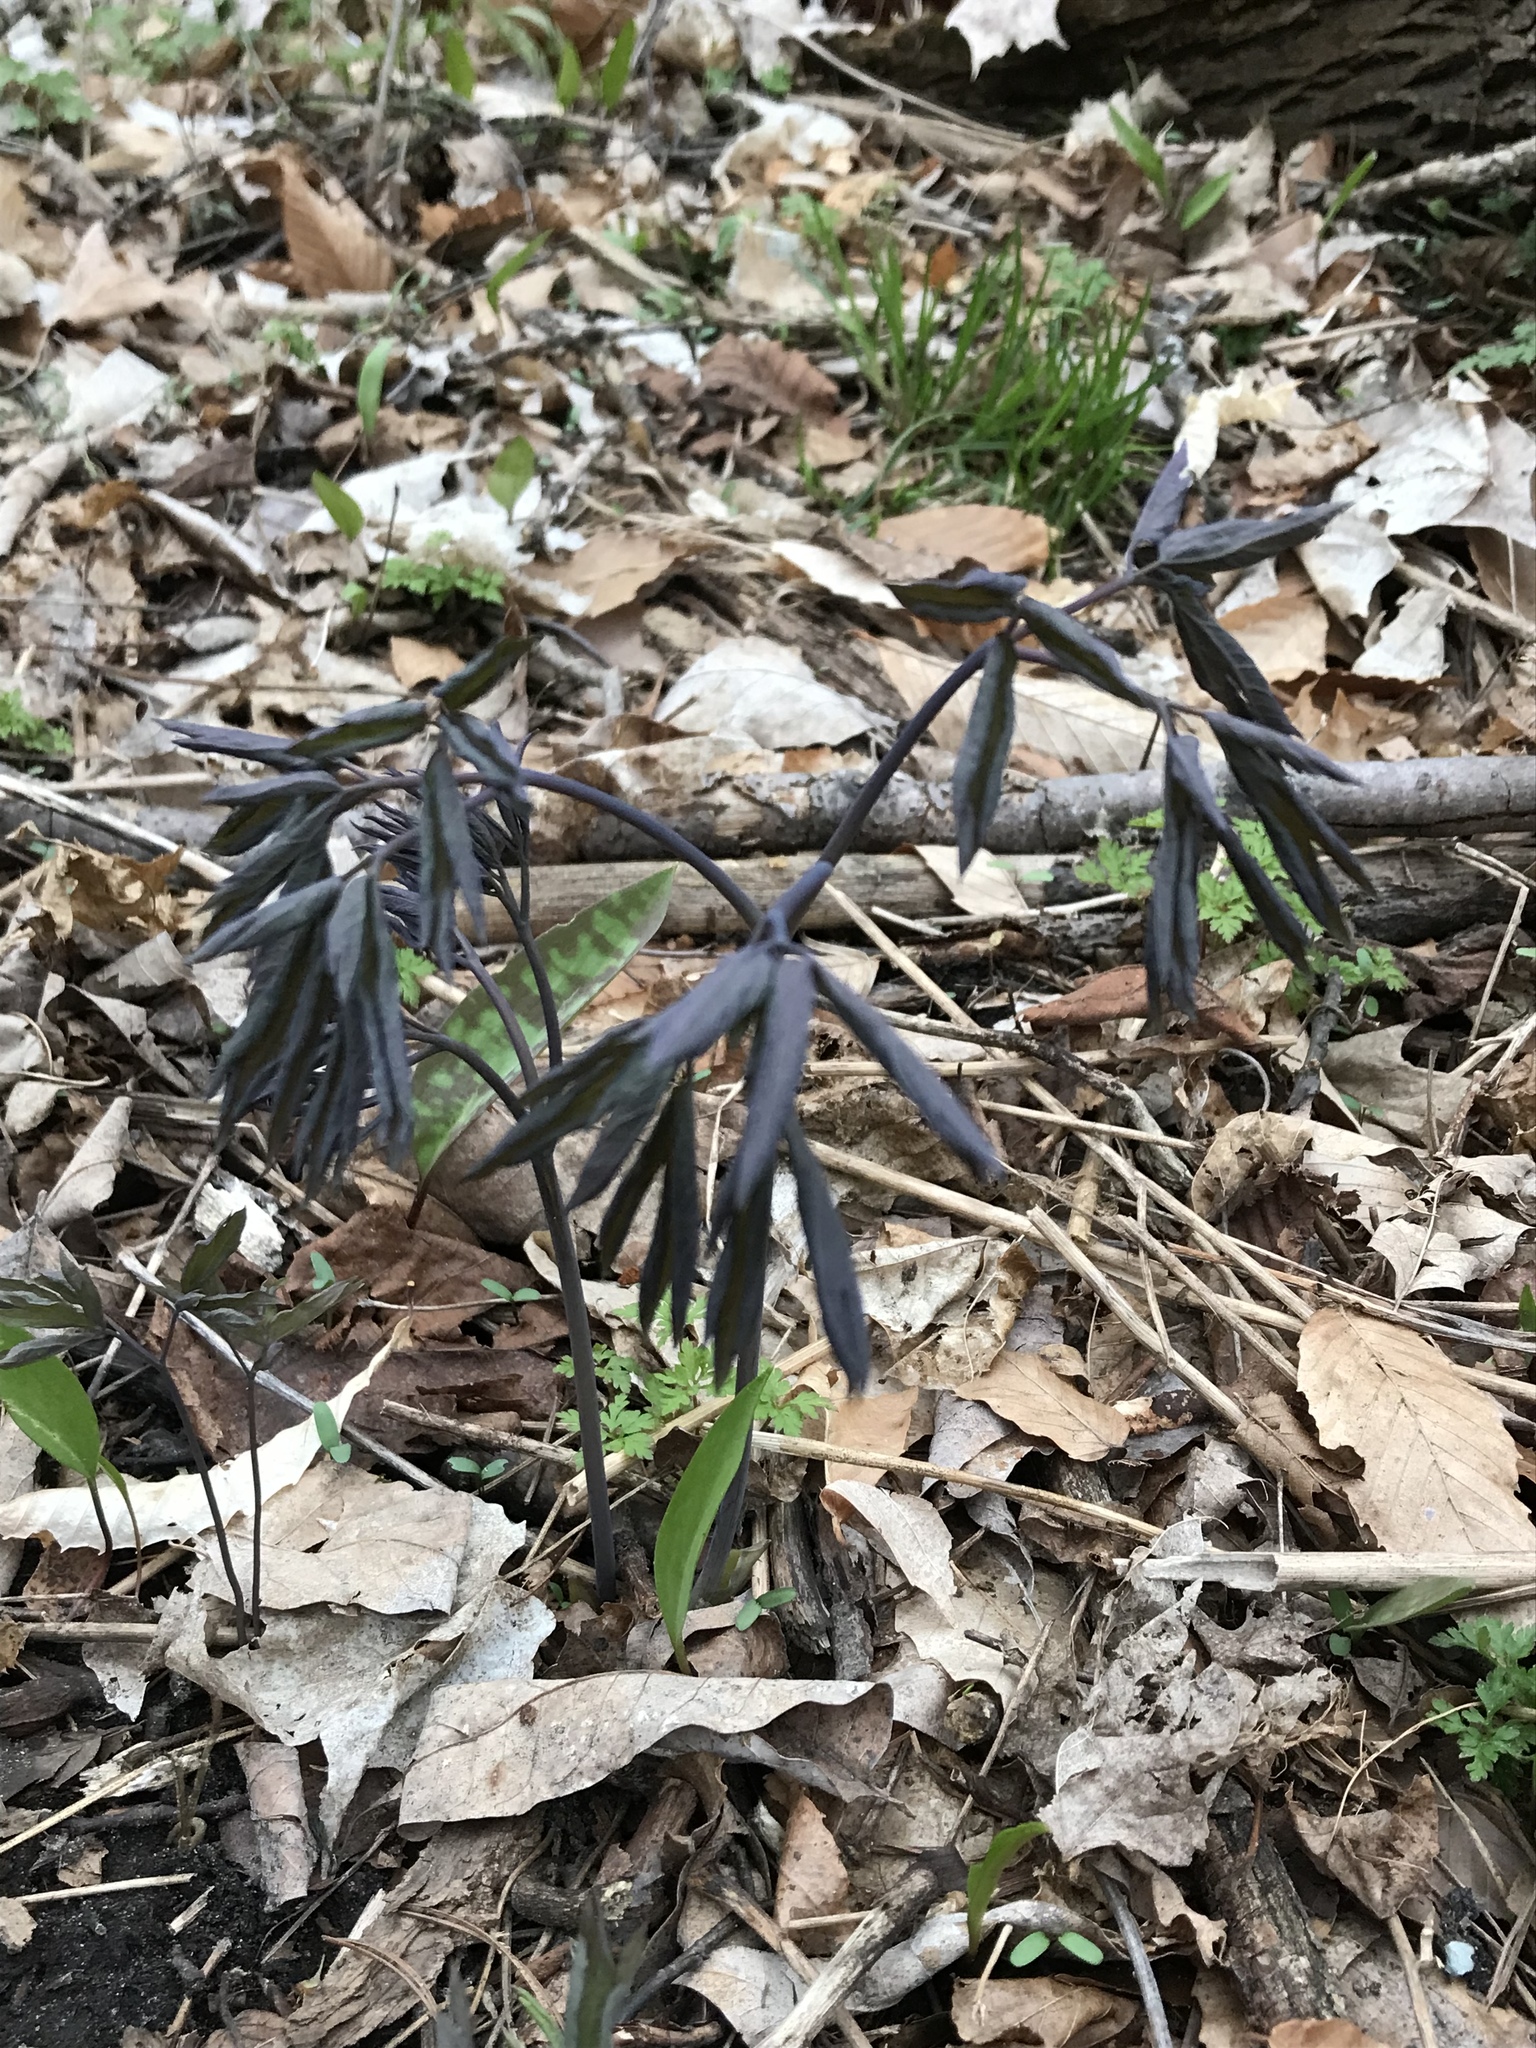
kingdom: Plantae
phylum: Tracheophyta
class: Magnoliopsida
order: Ranunculales
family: Berberidaceae
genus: Caulophyllum
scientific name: Caulophyllum giganteum
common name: Blue cohosh
